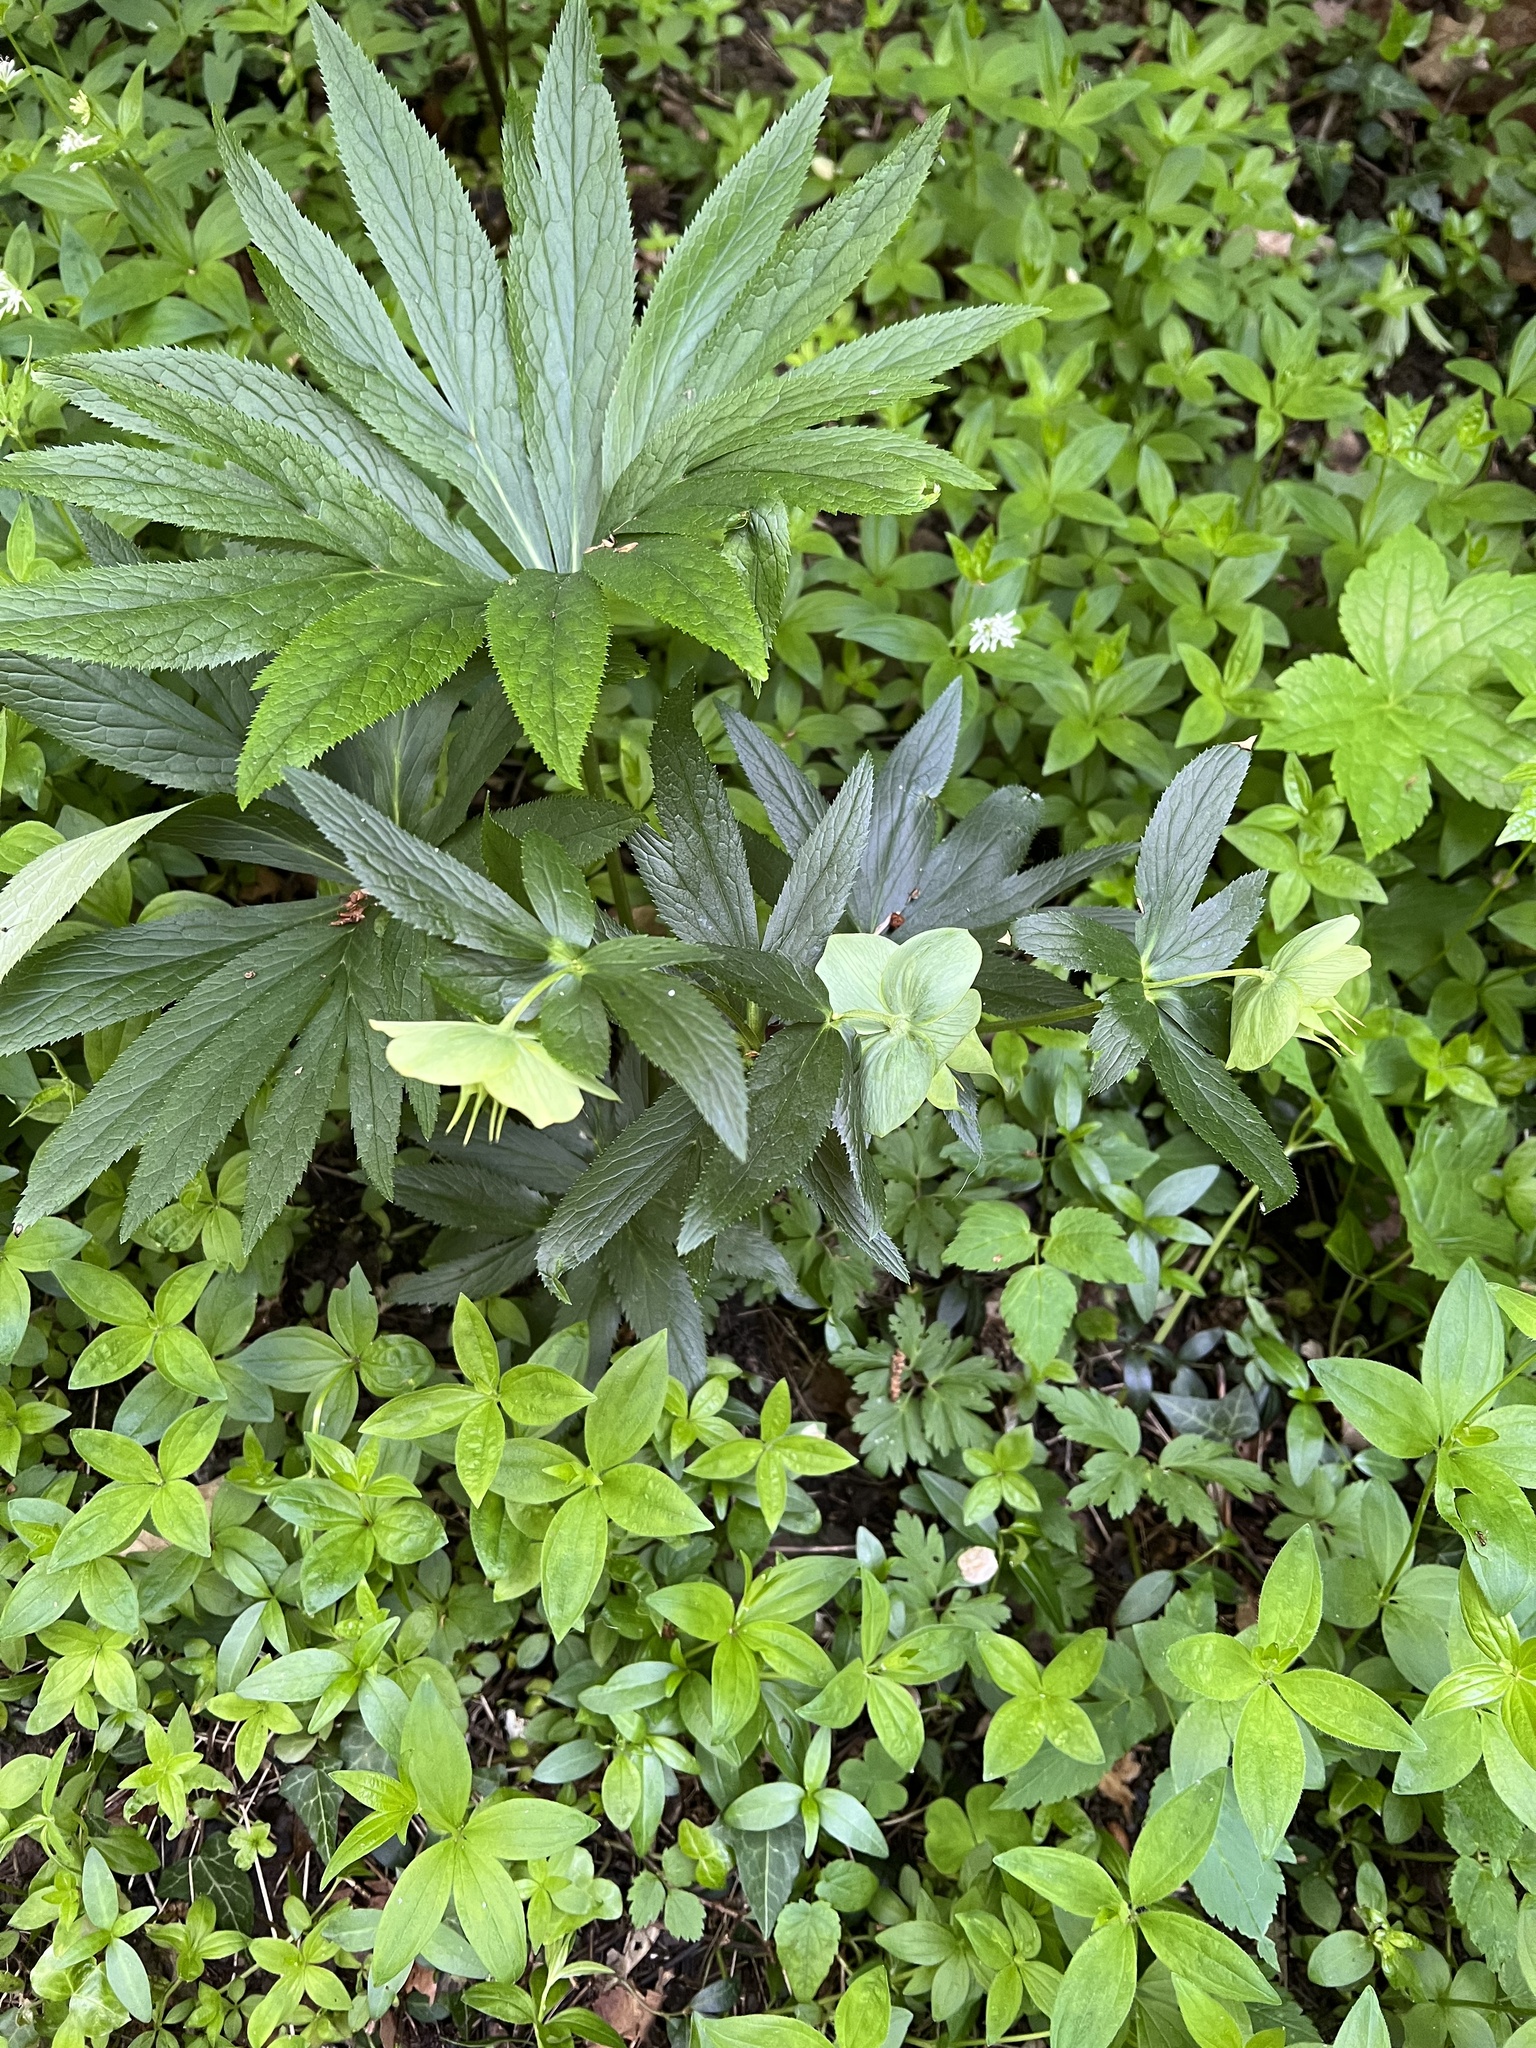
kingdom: Plantae
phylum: Tracheophyta
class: Magnoliopsida
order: Ranunculales
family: Ranunculaceae
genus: Helleborus
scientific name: Helleborus viridis
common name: Green hellebore
